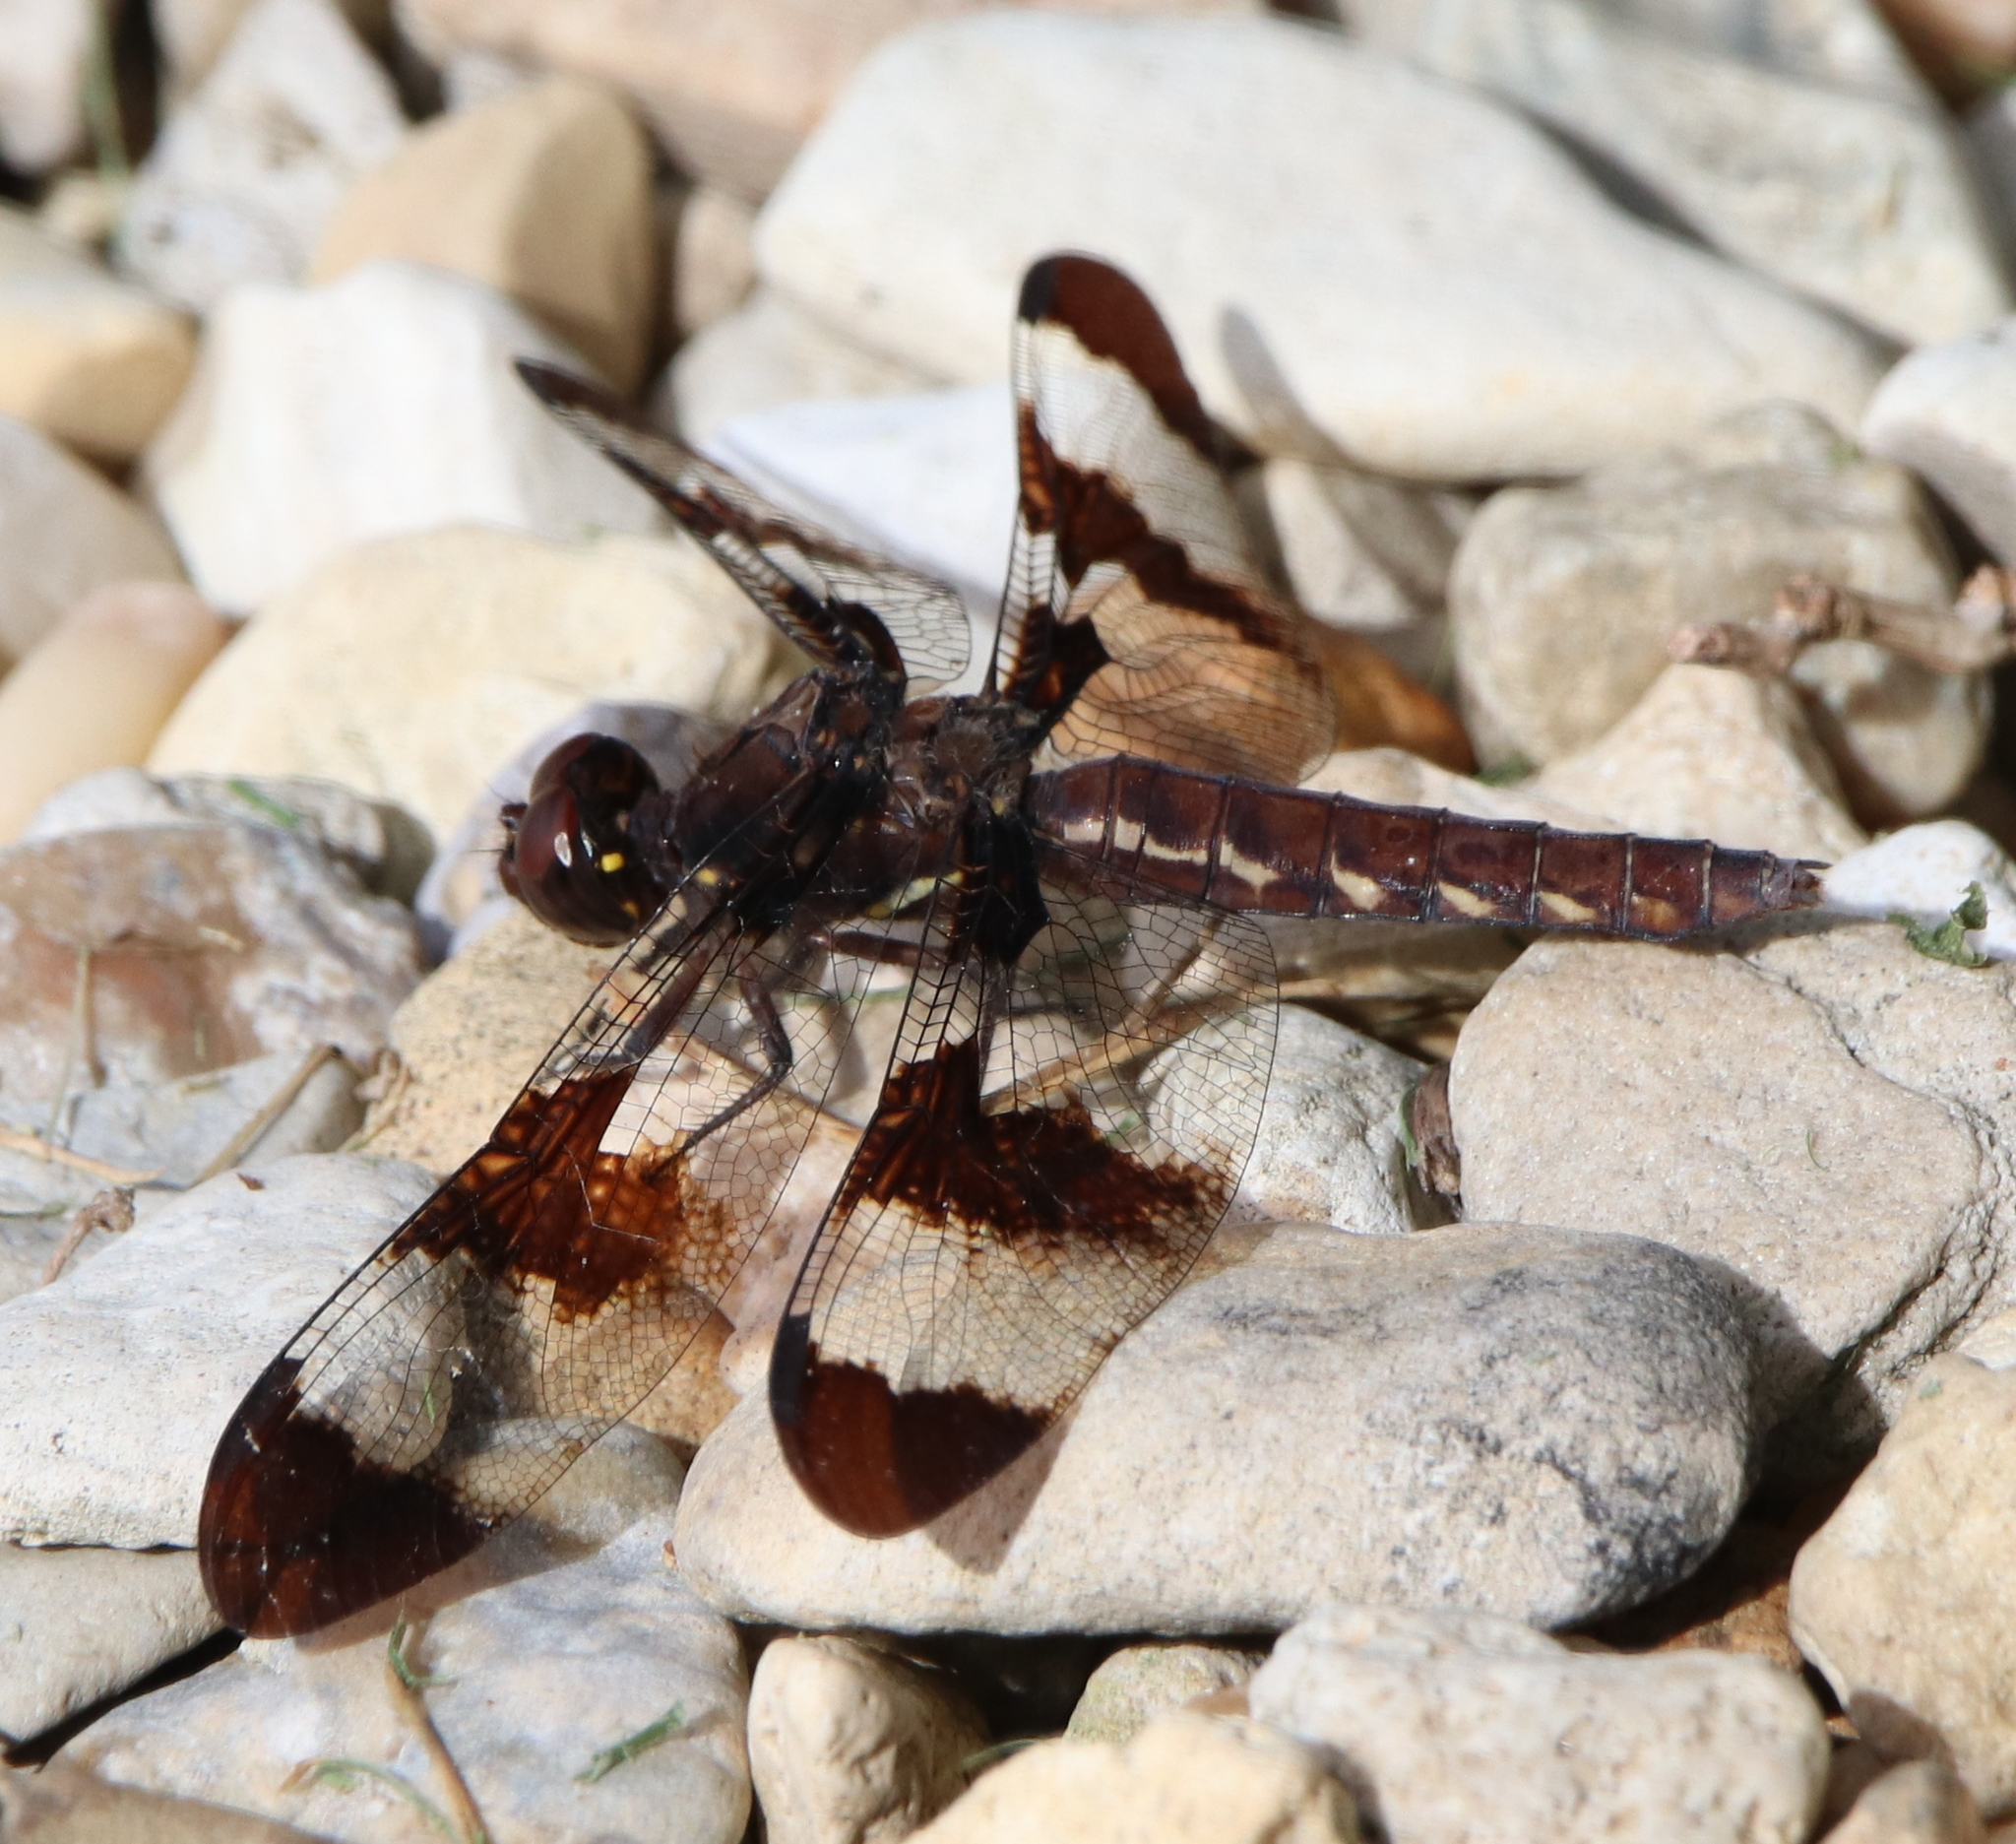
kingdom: Animalia
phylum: Arthropoda
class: Insecta
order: Odonata
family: Libellulidae
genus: Plathemis
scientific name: Plathemis lydia
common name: Common whitetail
